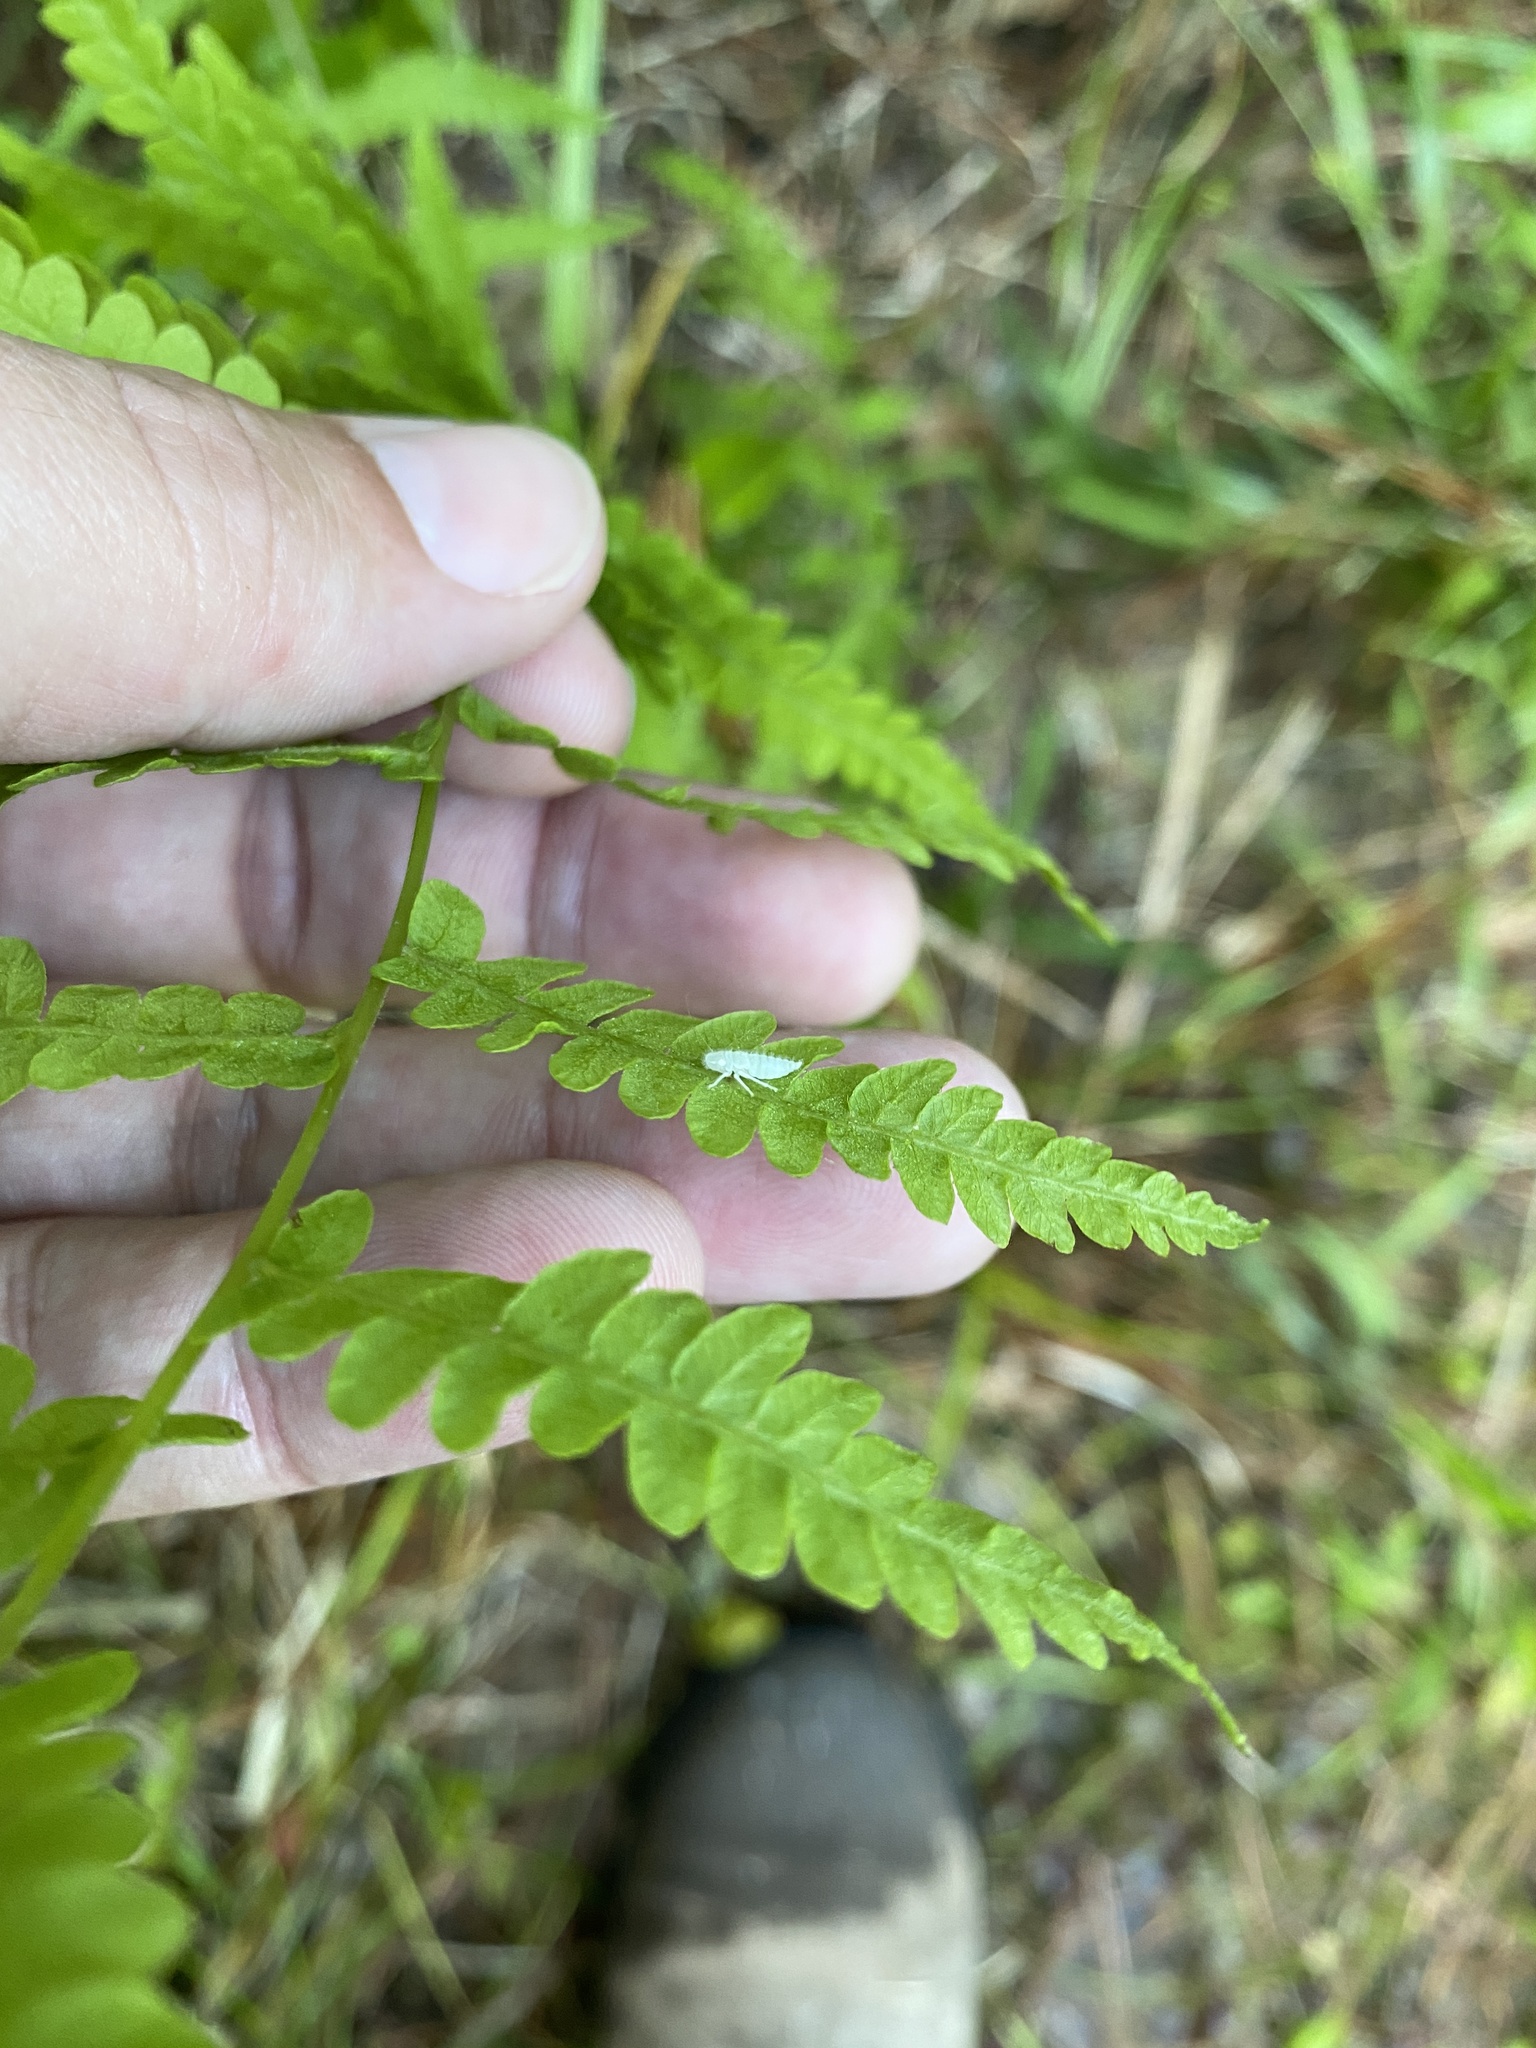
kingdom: Plantae
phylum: Tracheophyta
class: Polypodiopsida
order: Polypodiales
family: Thelypteridaceae
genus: Thelypteris
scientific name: Thelypteris palustris
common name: Marsh fern
